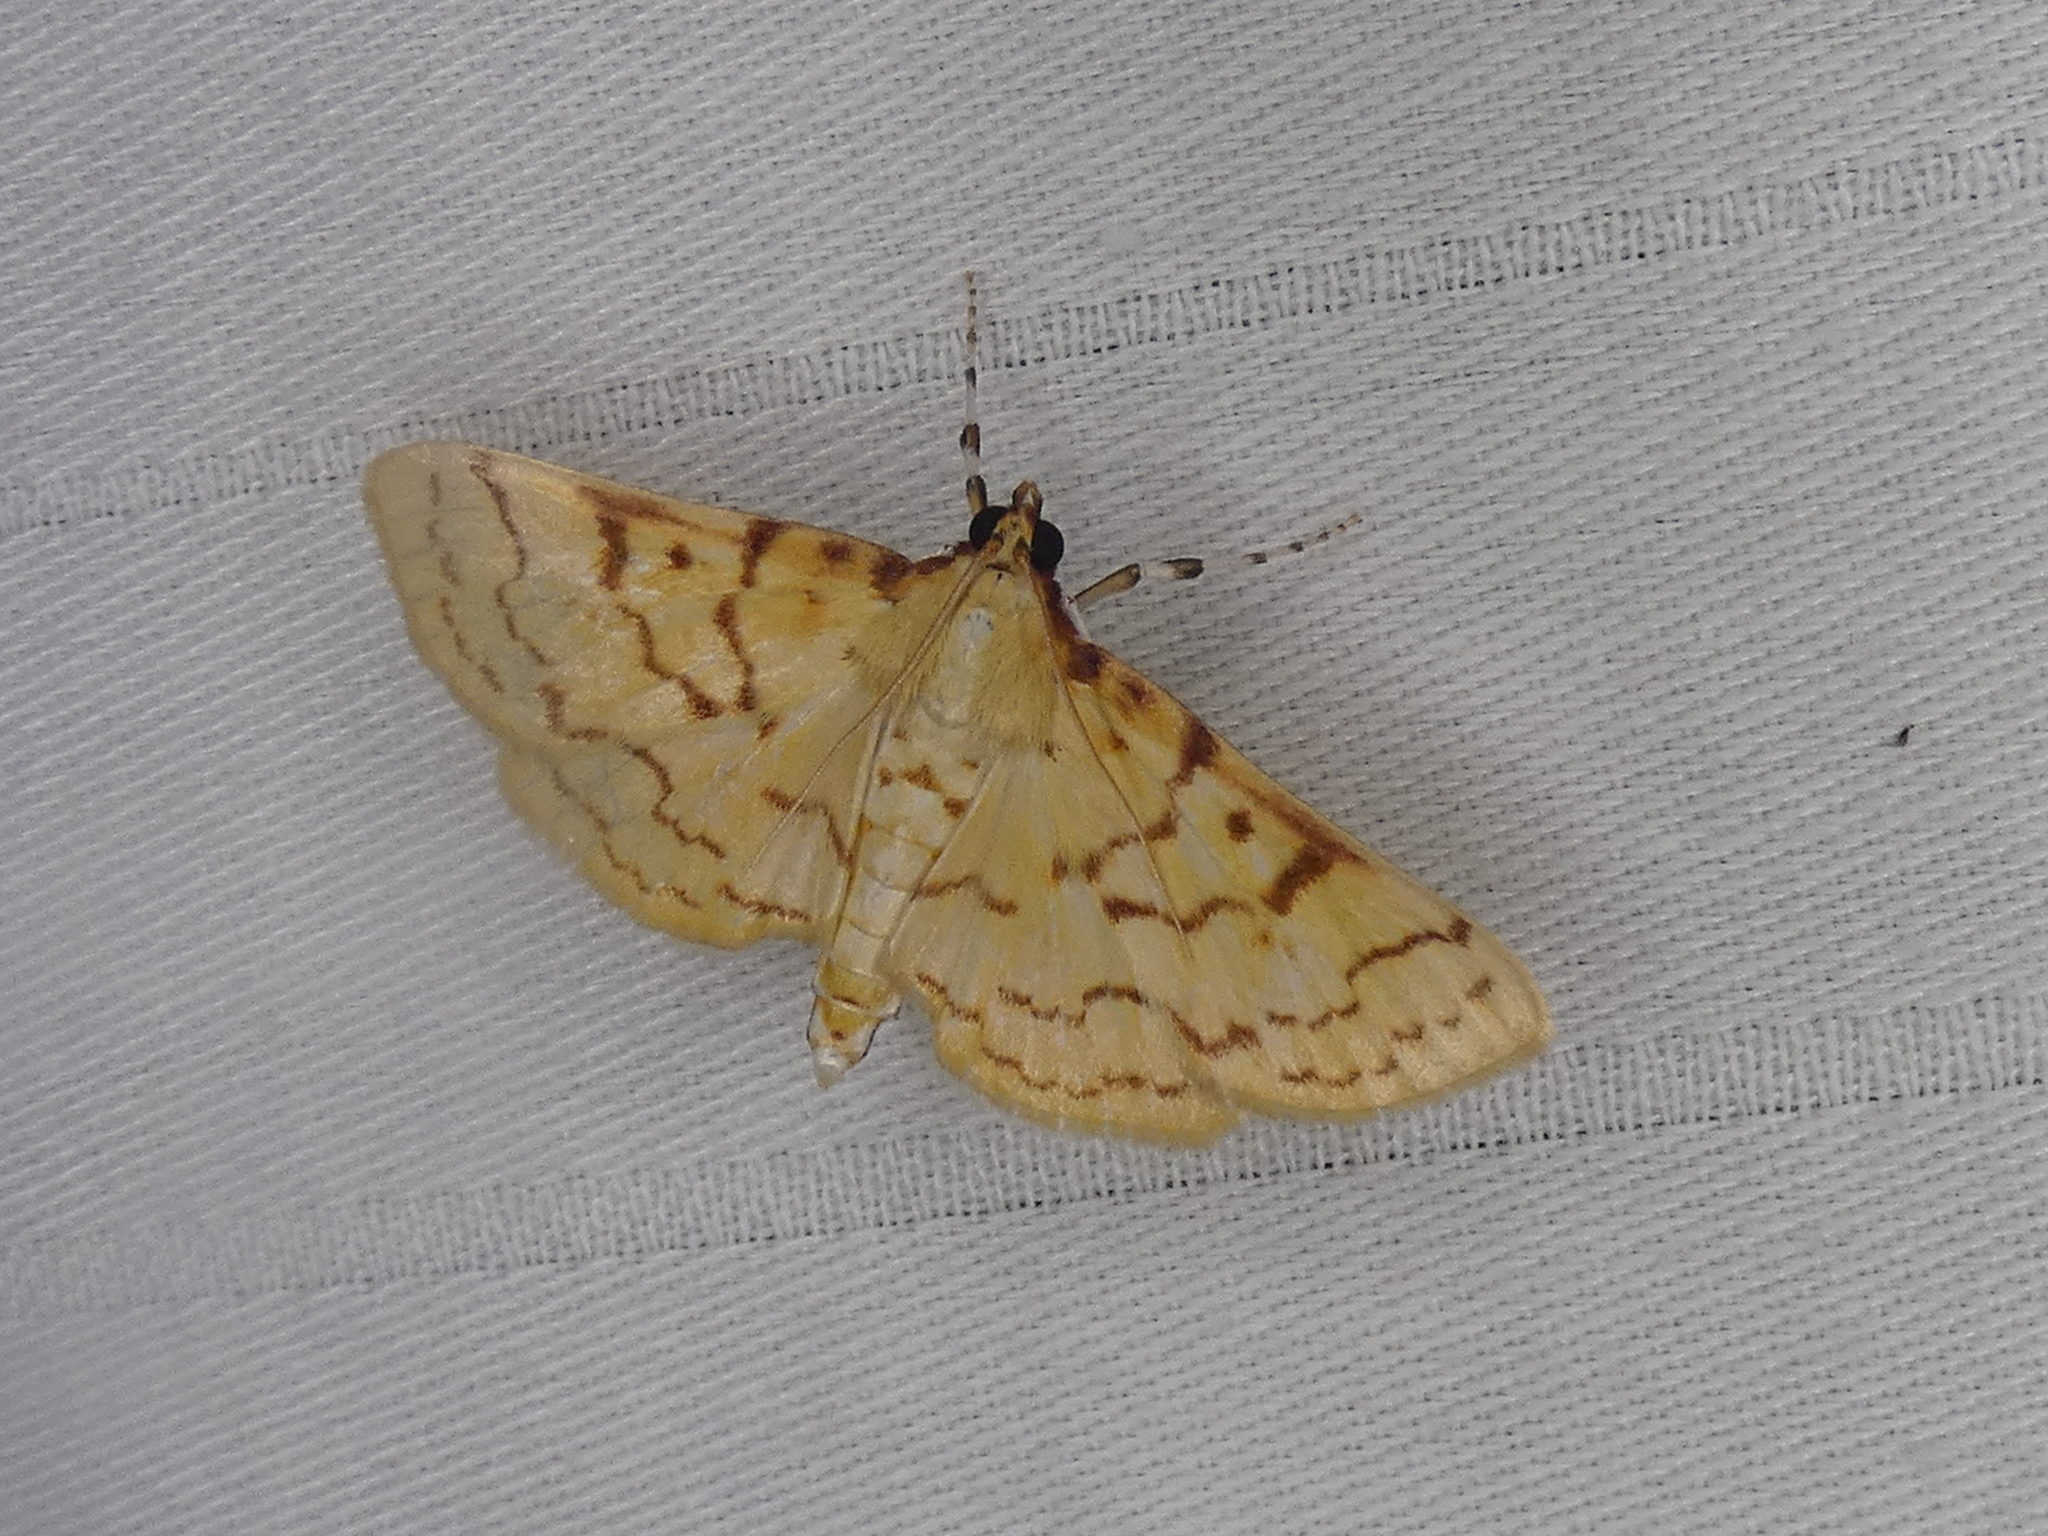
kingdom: Animalia
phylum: Arthropoda
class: Insecta
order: Lepidoptera
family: Crambidae
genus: Polygrammodes
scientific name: Polygrammodes flavidalis
